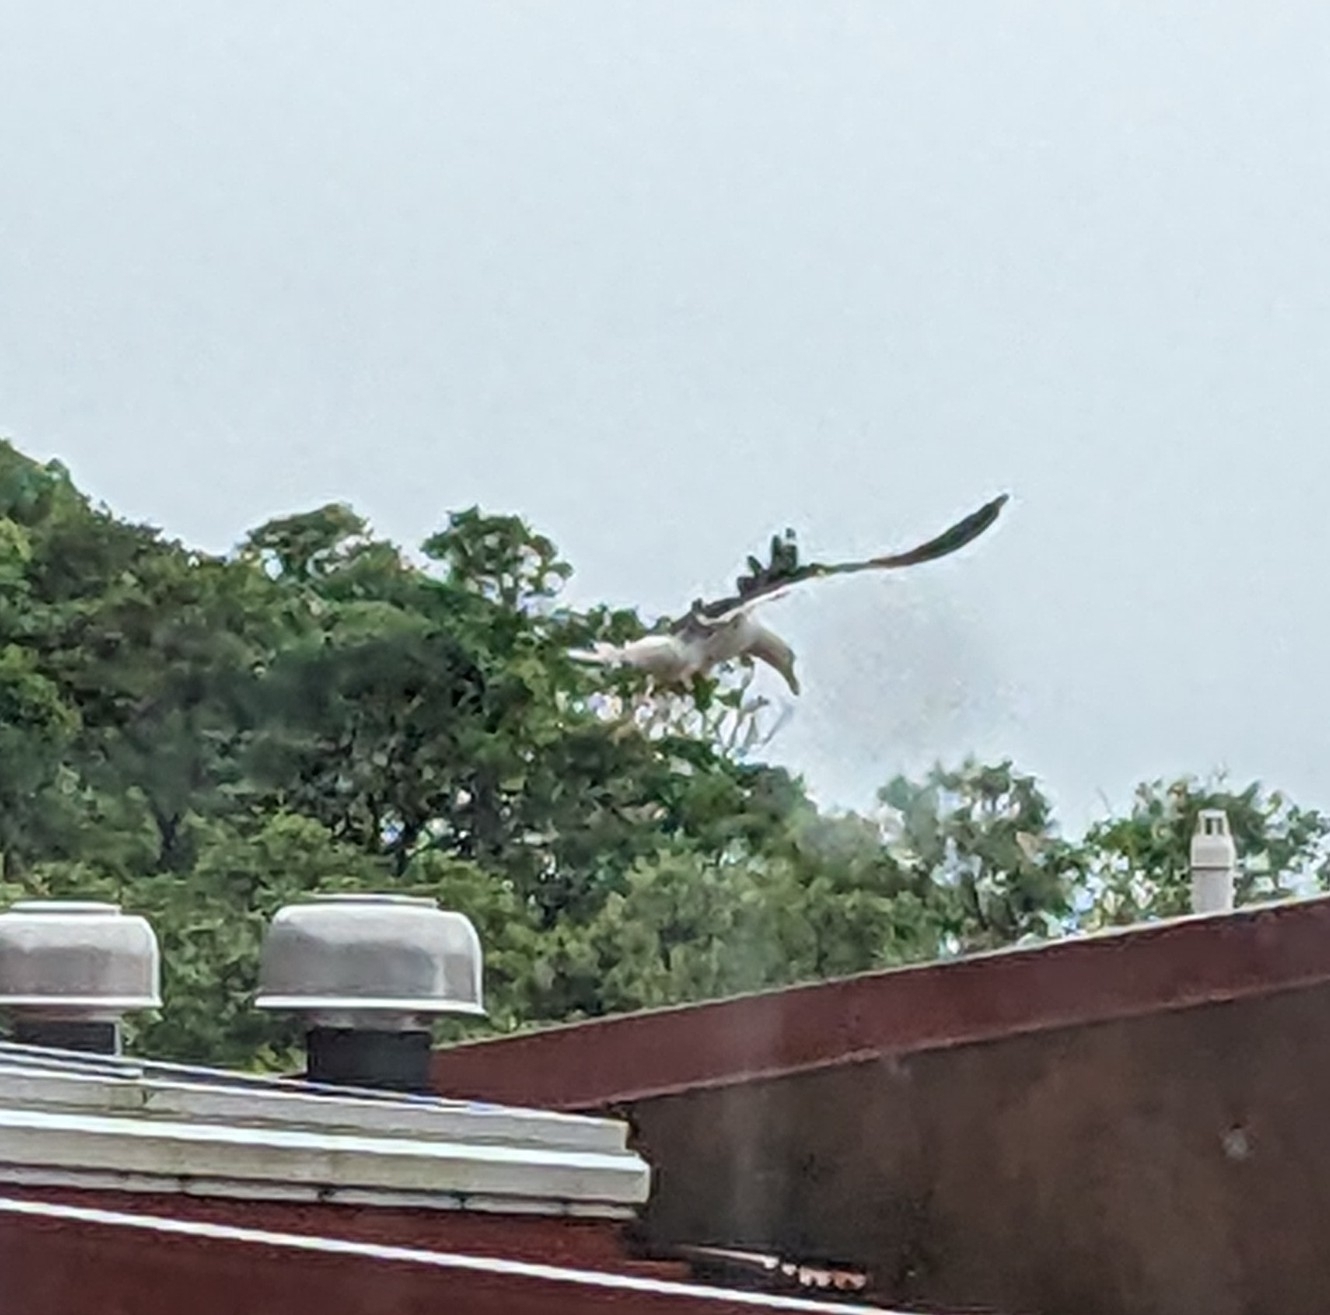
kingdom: Animalia
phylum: Chordata
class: Aves
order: Charadriiformes
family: Laridae
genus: Larus
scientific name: Larus dominicanus
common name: Kelp gull
